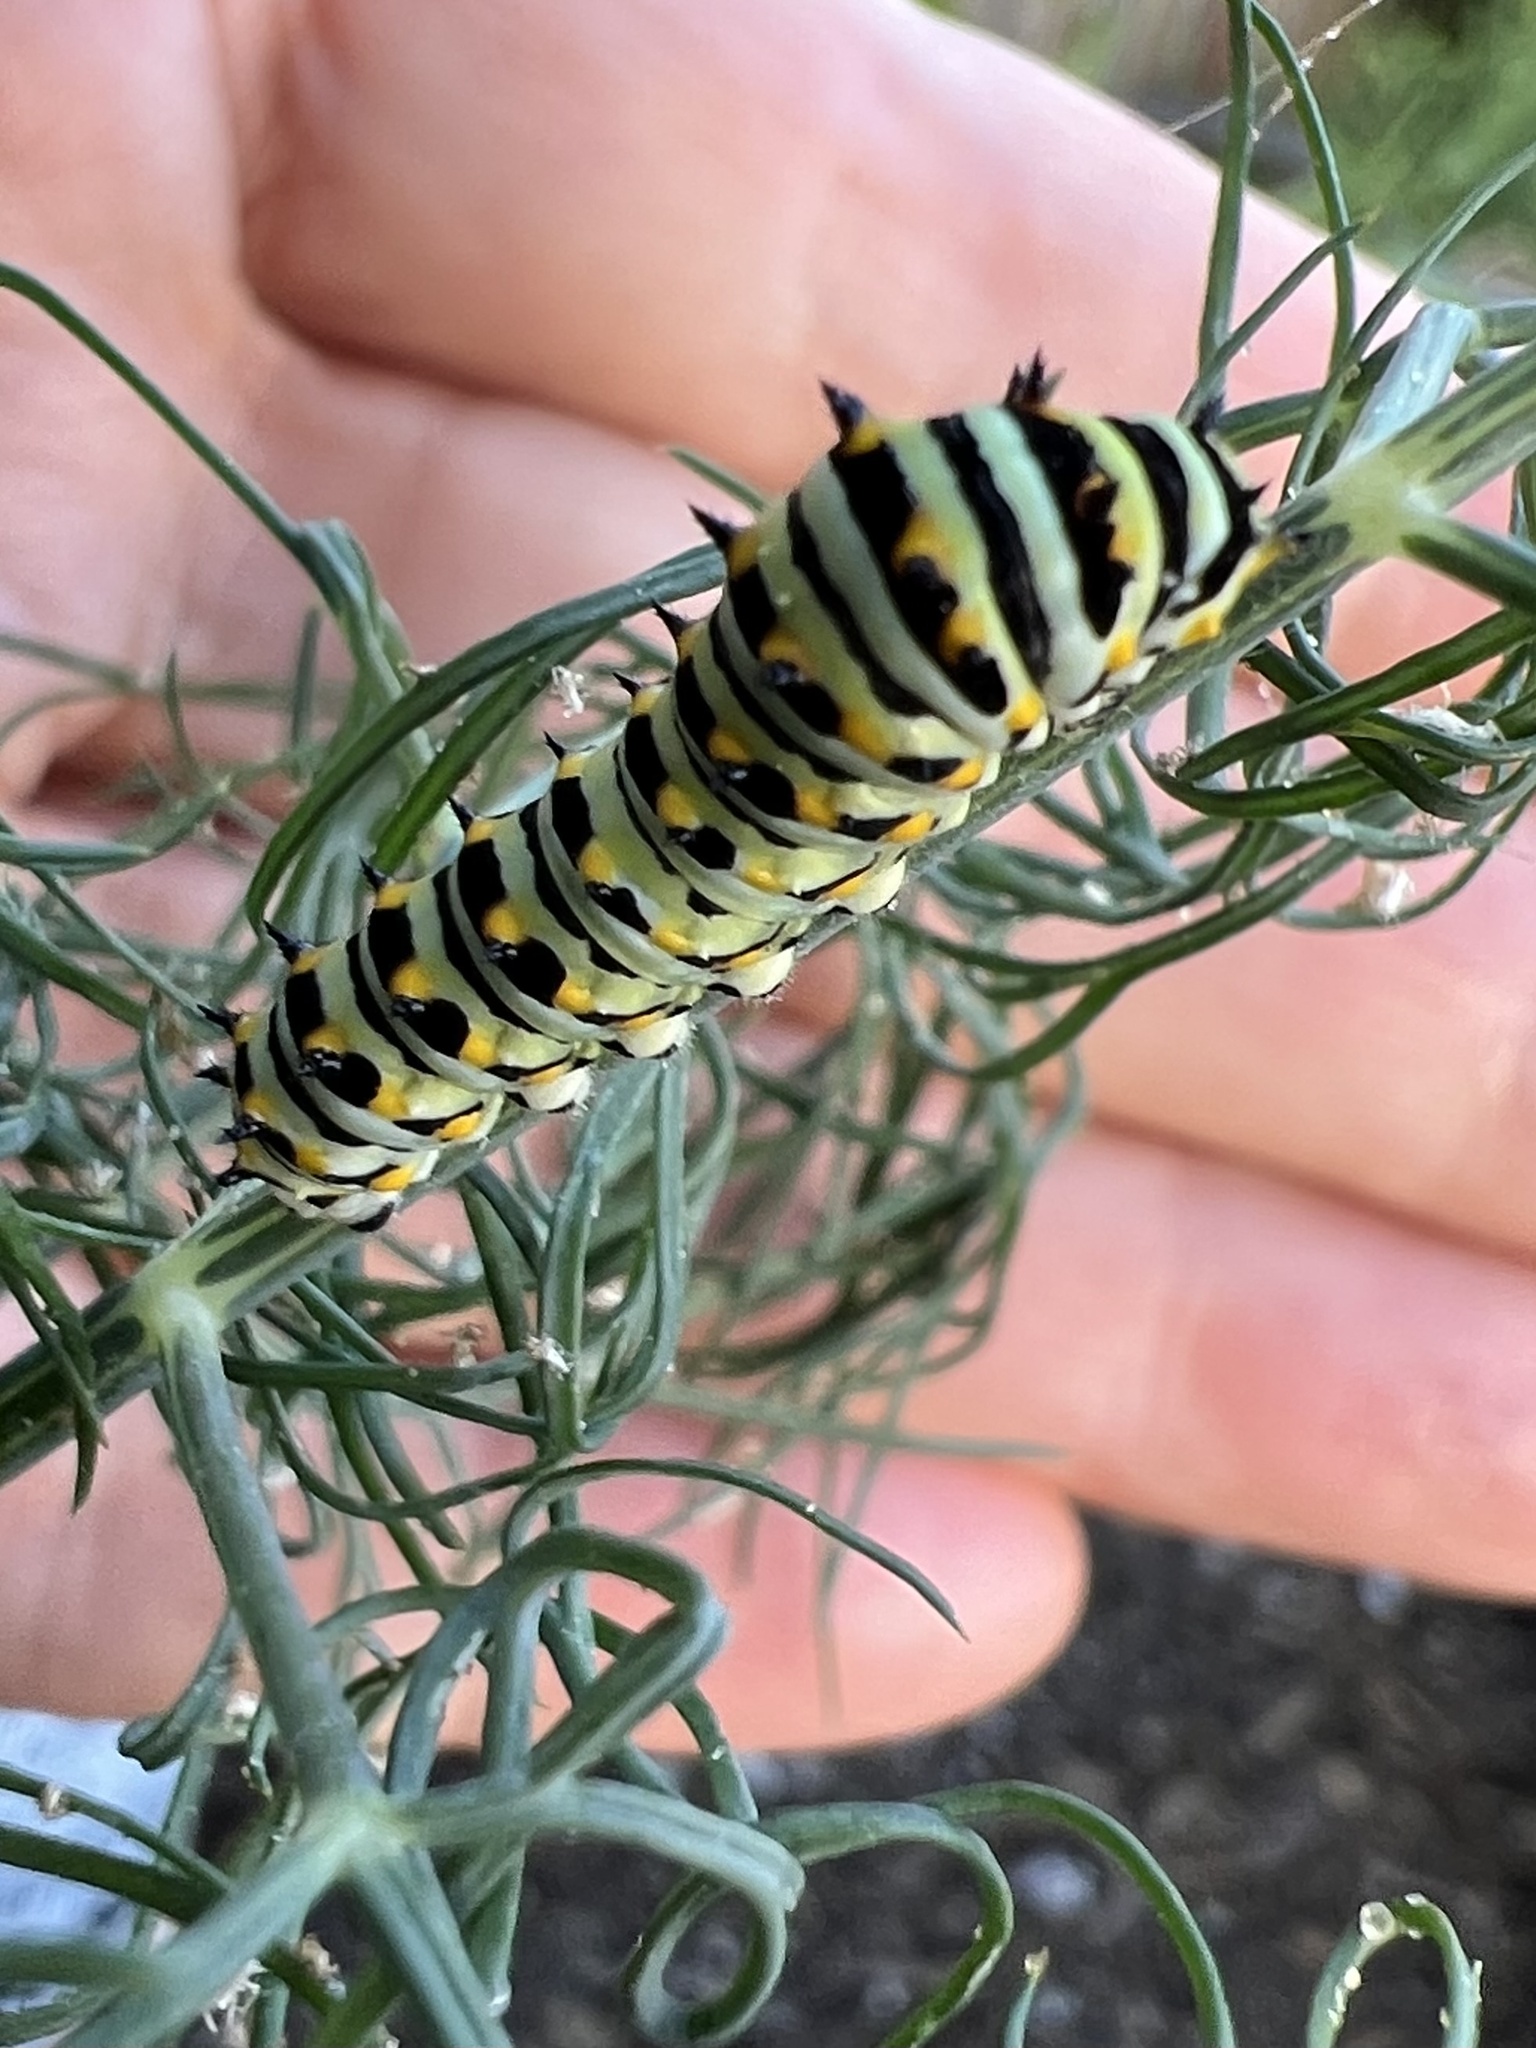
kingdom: Animalia
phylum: Arthropoda
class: Insecta
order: Lepidoptera
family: Papilionidae
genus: Papilio
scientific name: Papilio zelicaon
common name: Anise swallowtail
